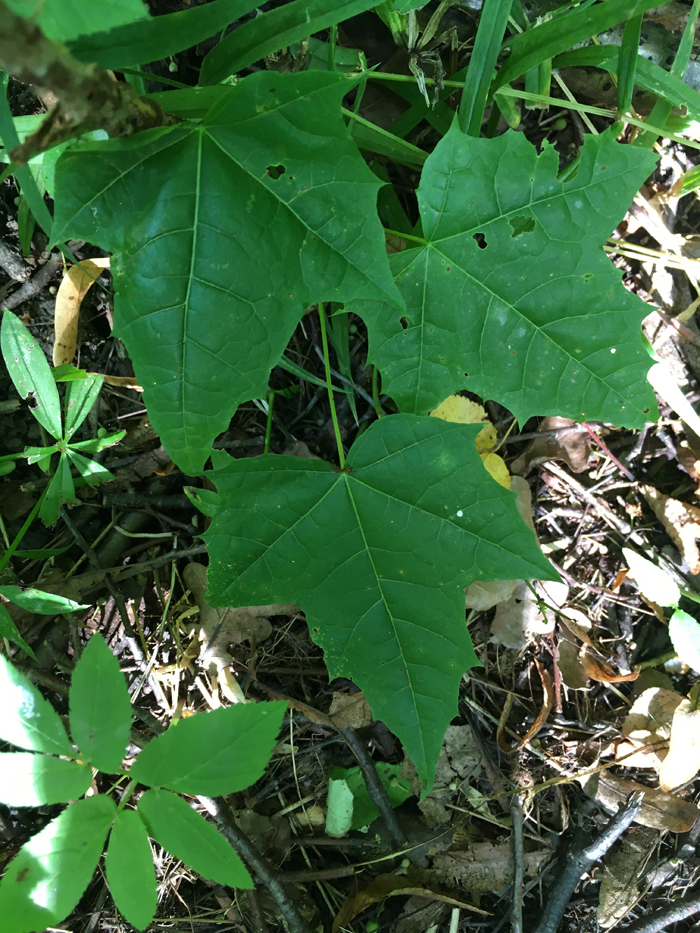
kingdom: Plantae
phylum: Tracheophyta
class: Magnoliopsida
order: Sapindales
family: Sapindaceae
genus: Acer
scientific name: Acer platanoides
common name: Norway maple
